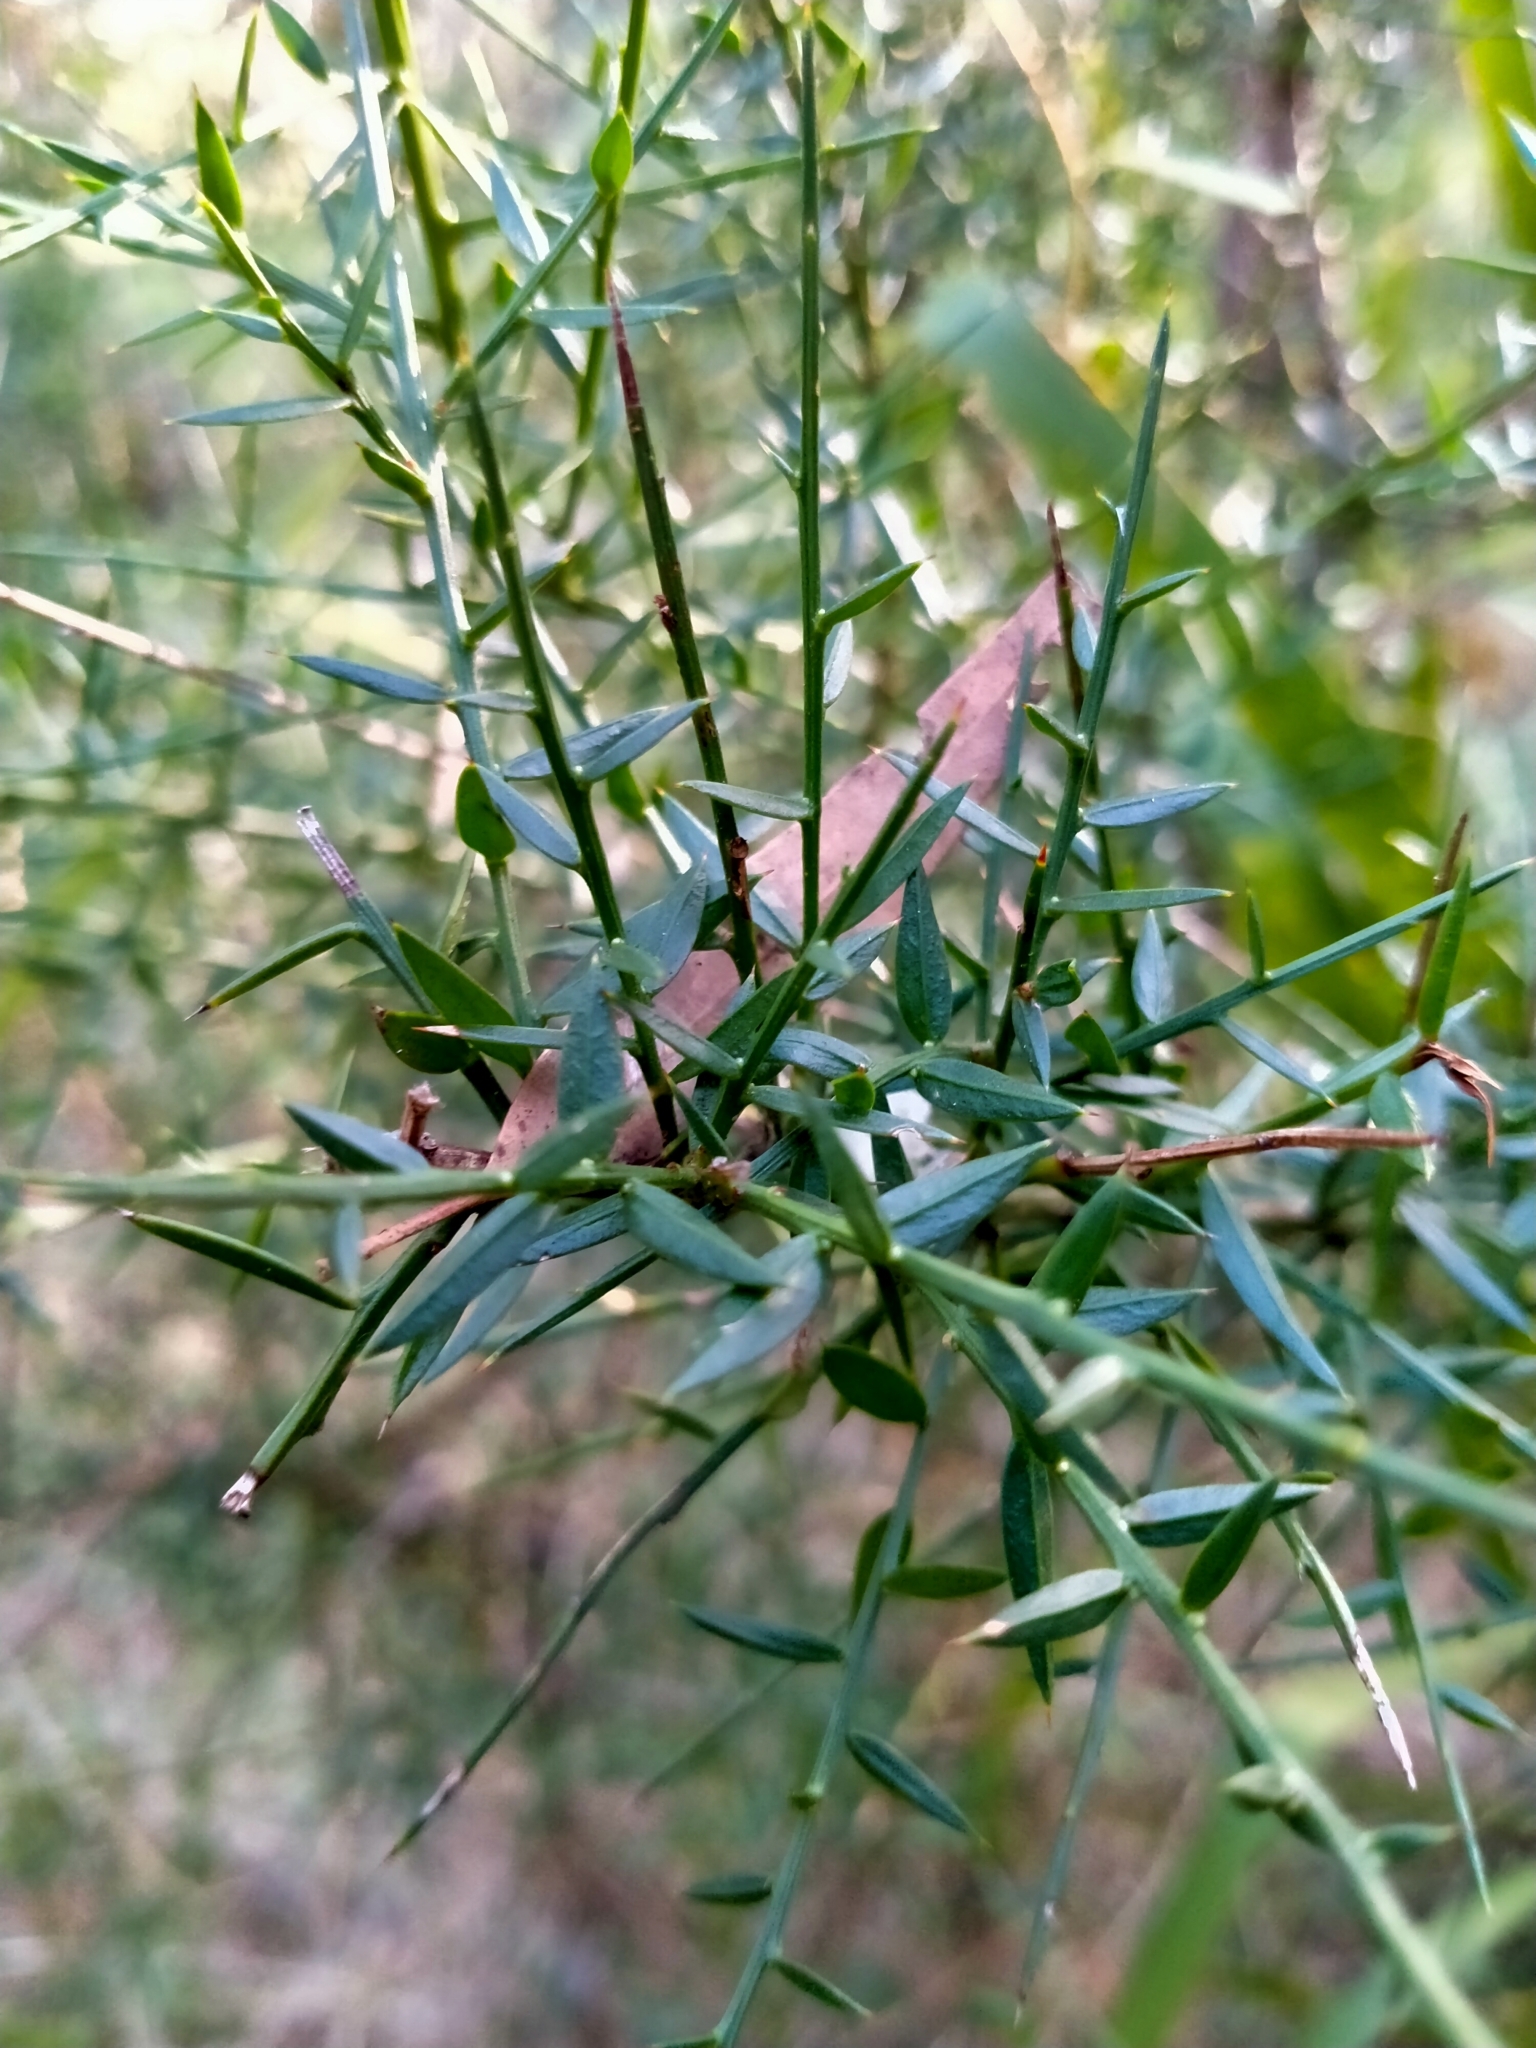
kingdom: Plantae
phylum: Tracheophyta
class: Magnoliopsida
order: Fabales
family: Fabaceae
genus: Daviesia
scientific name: Daviesia ulicifolia
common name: Gorse bitter-pea
